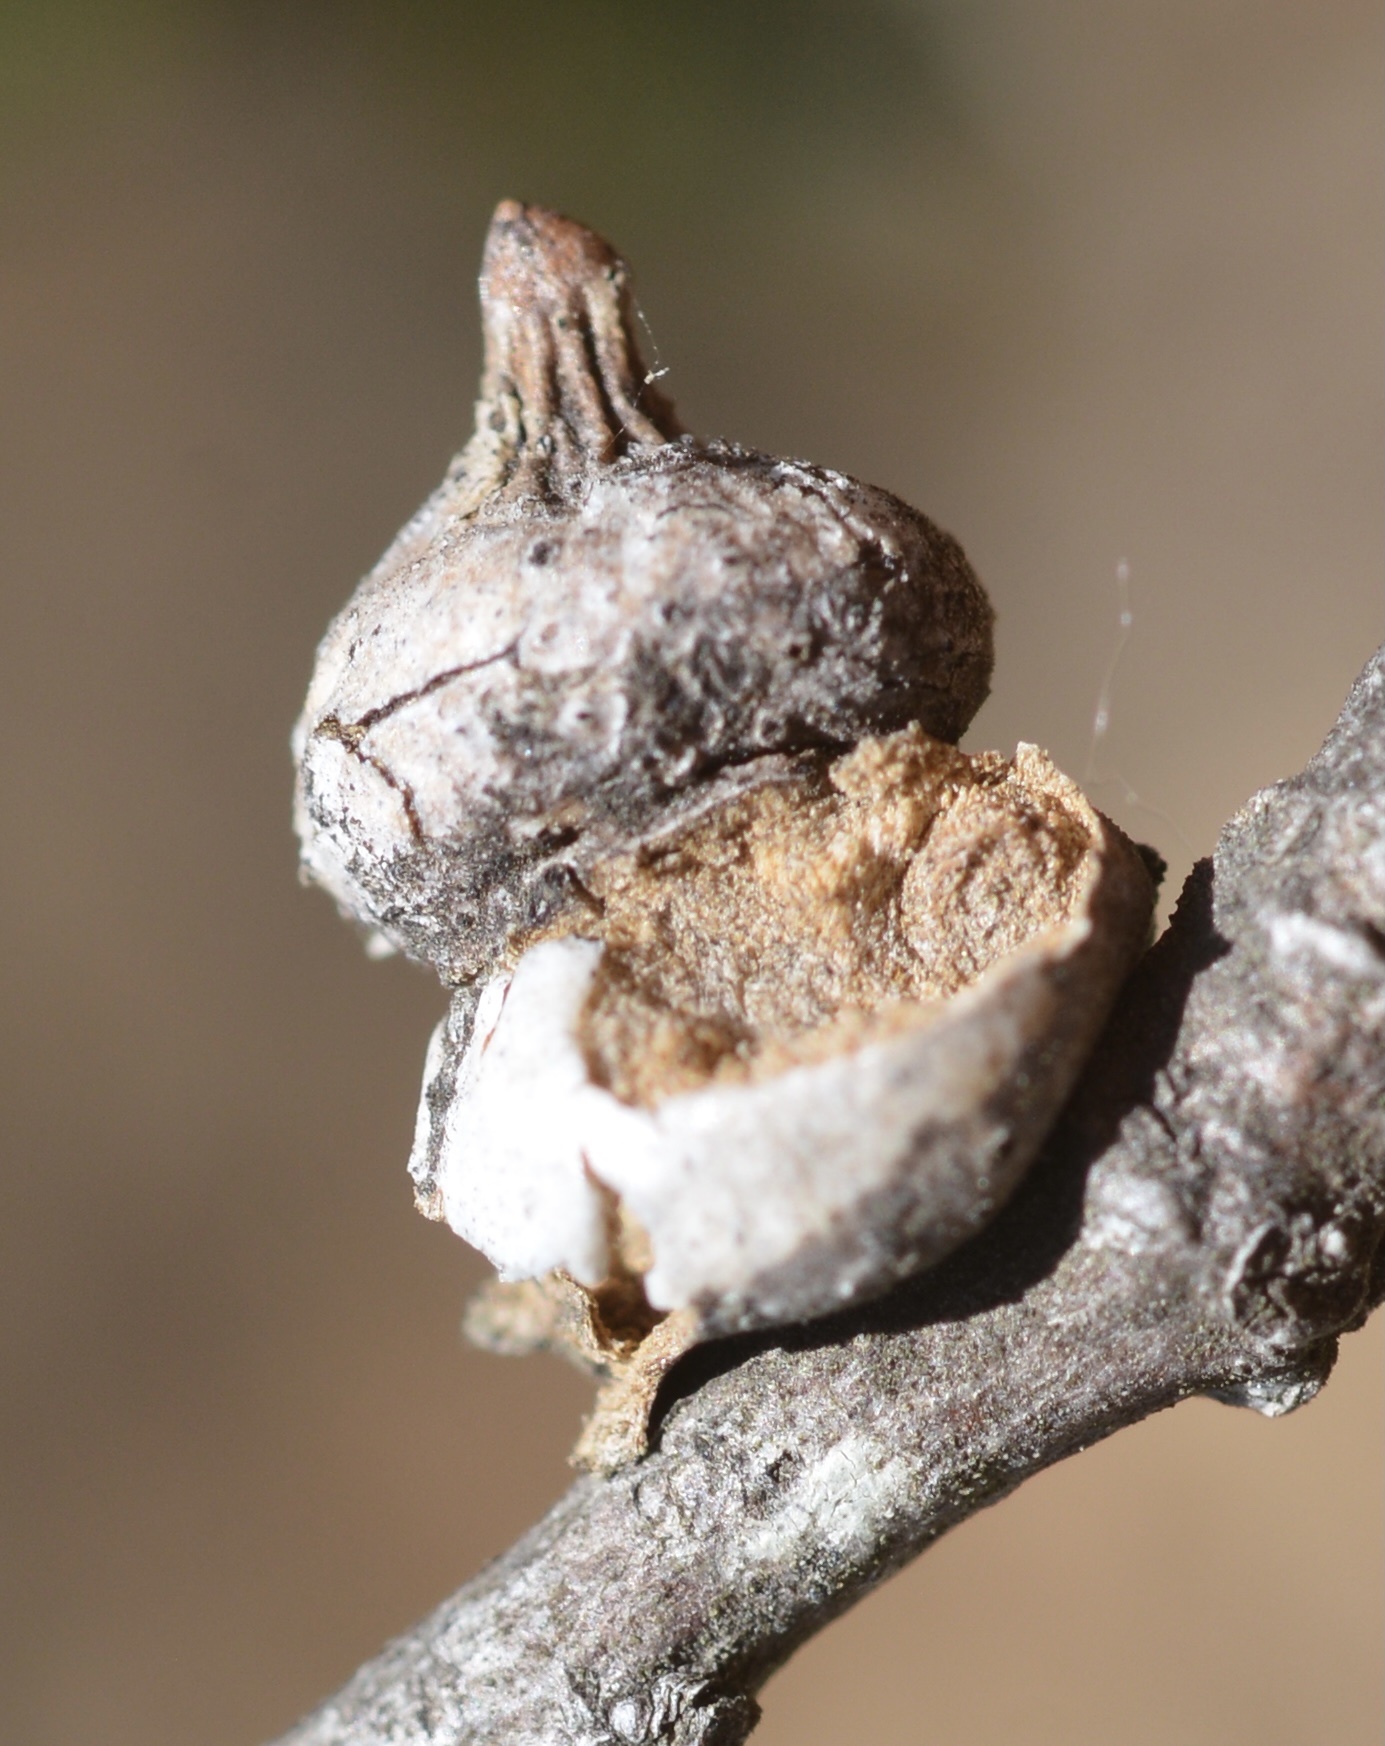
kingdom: Animalia
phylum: Arthropoda
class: Insecta
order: Hymenoptera
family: Cynipidae
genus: Heteroecus
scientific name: Heteroecus
